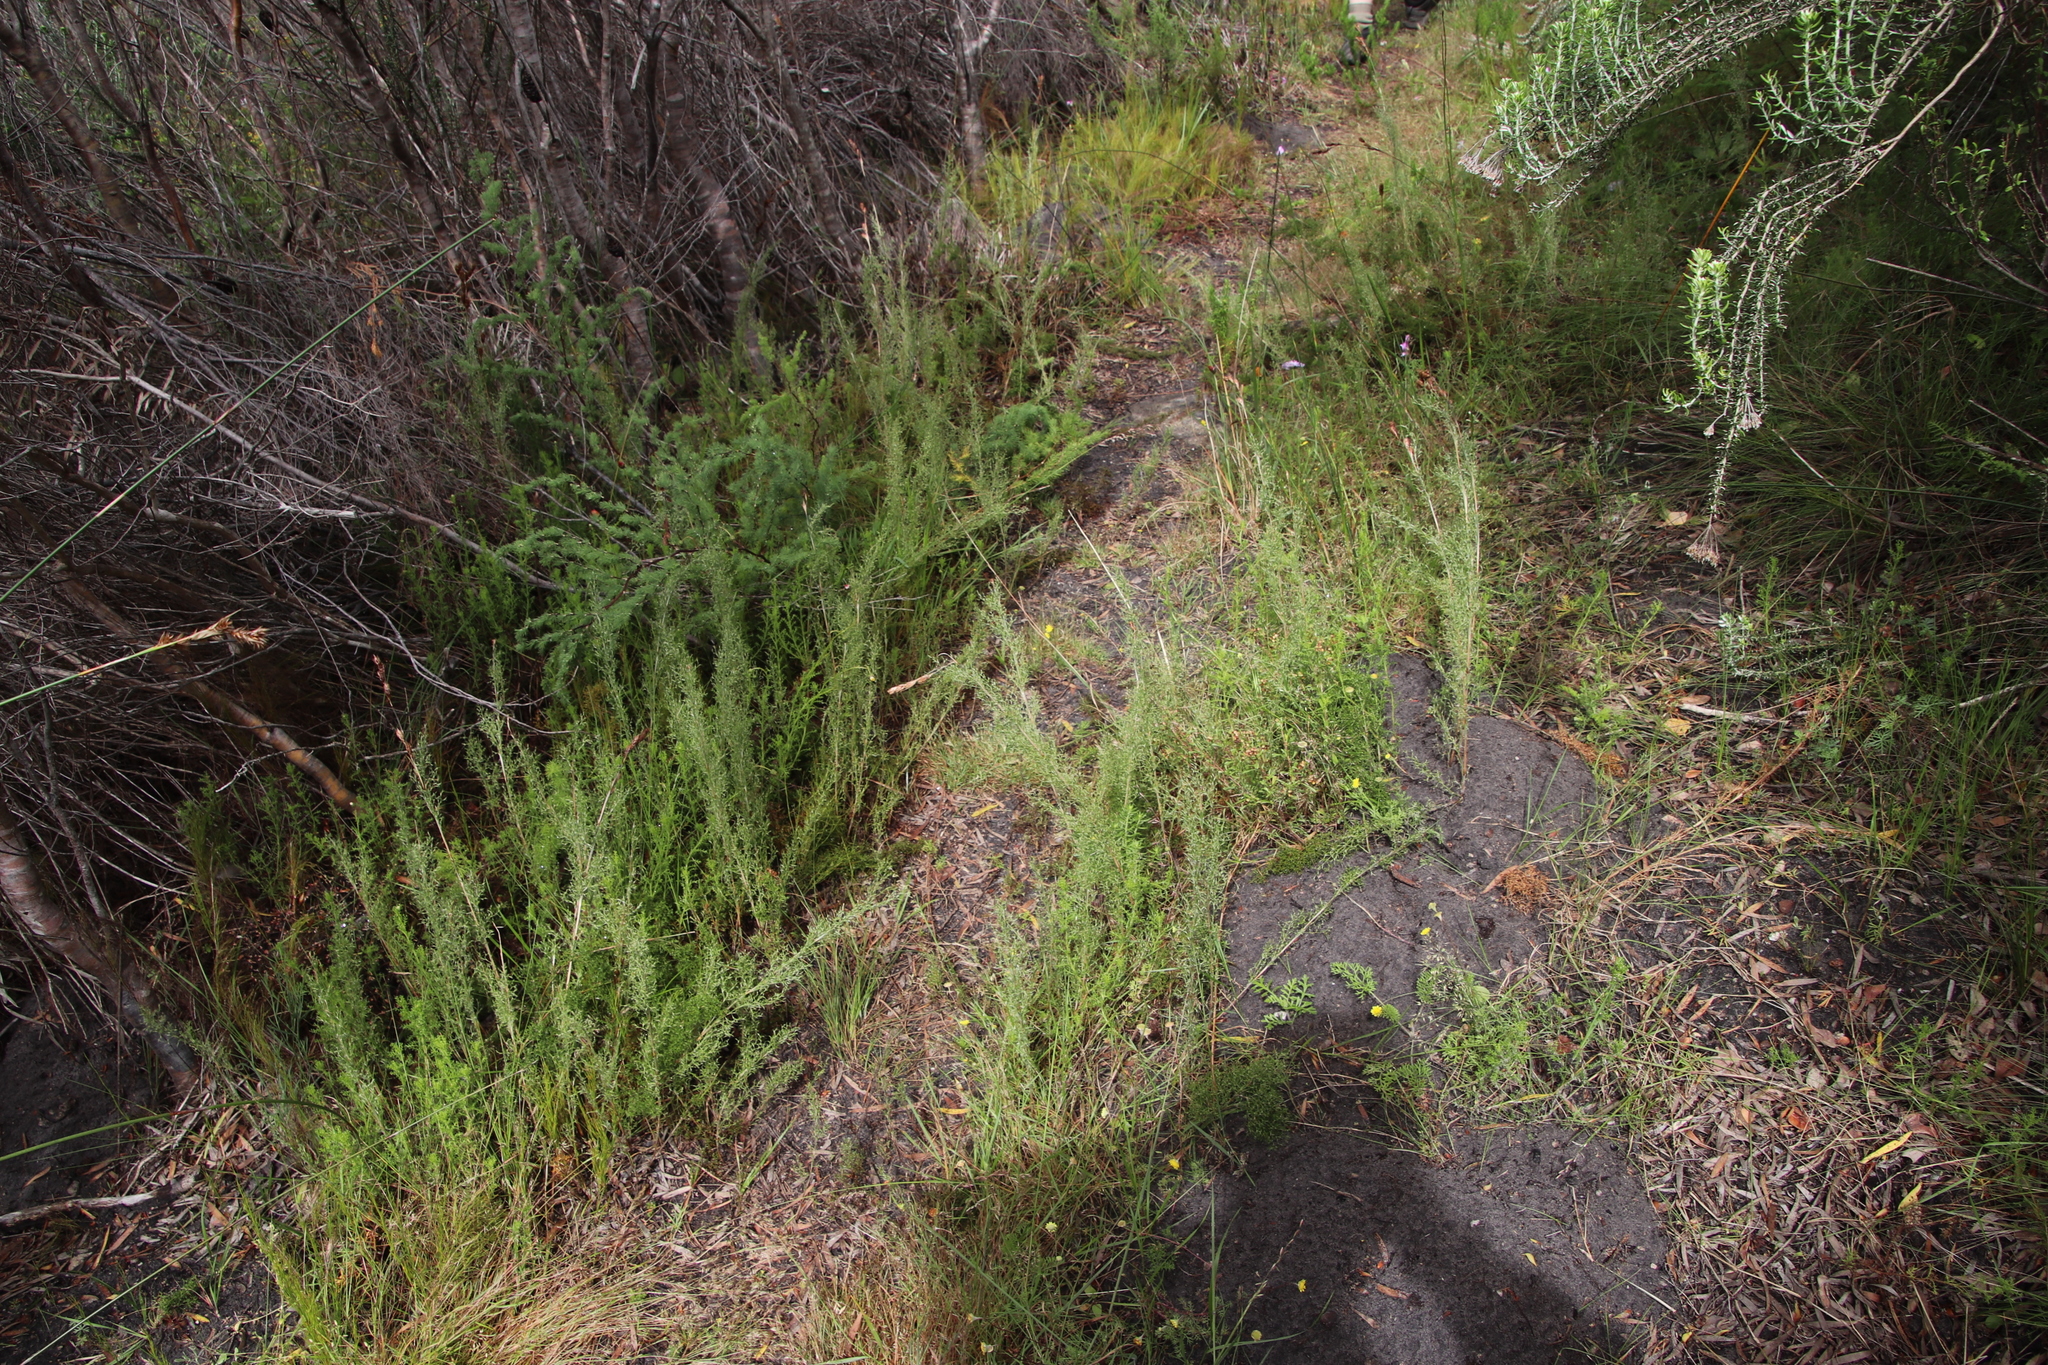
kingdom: Plantae
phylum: Tracheophyta
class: Liliopsida
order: Poales
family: Restionaceae
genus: Thamnochortus
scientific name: Thamnochortus fruticosus
